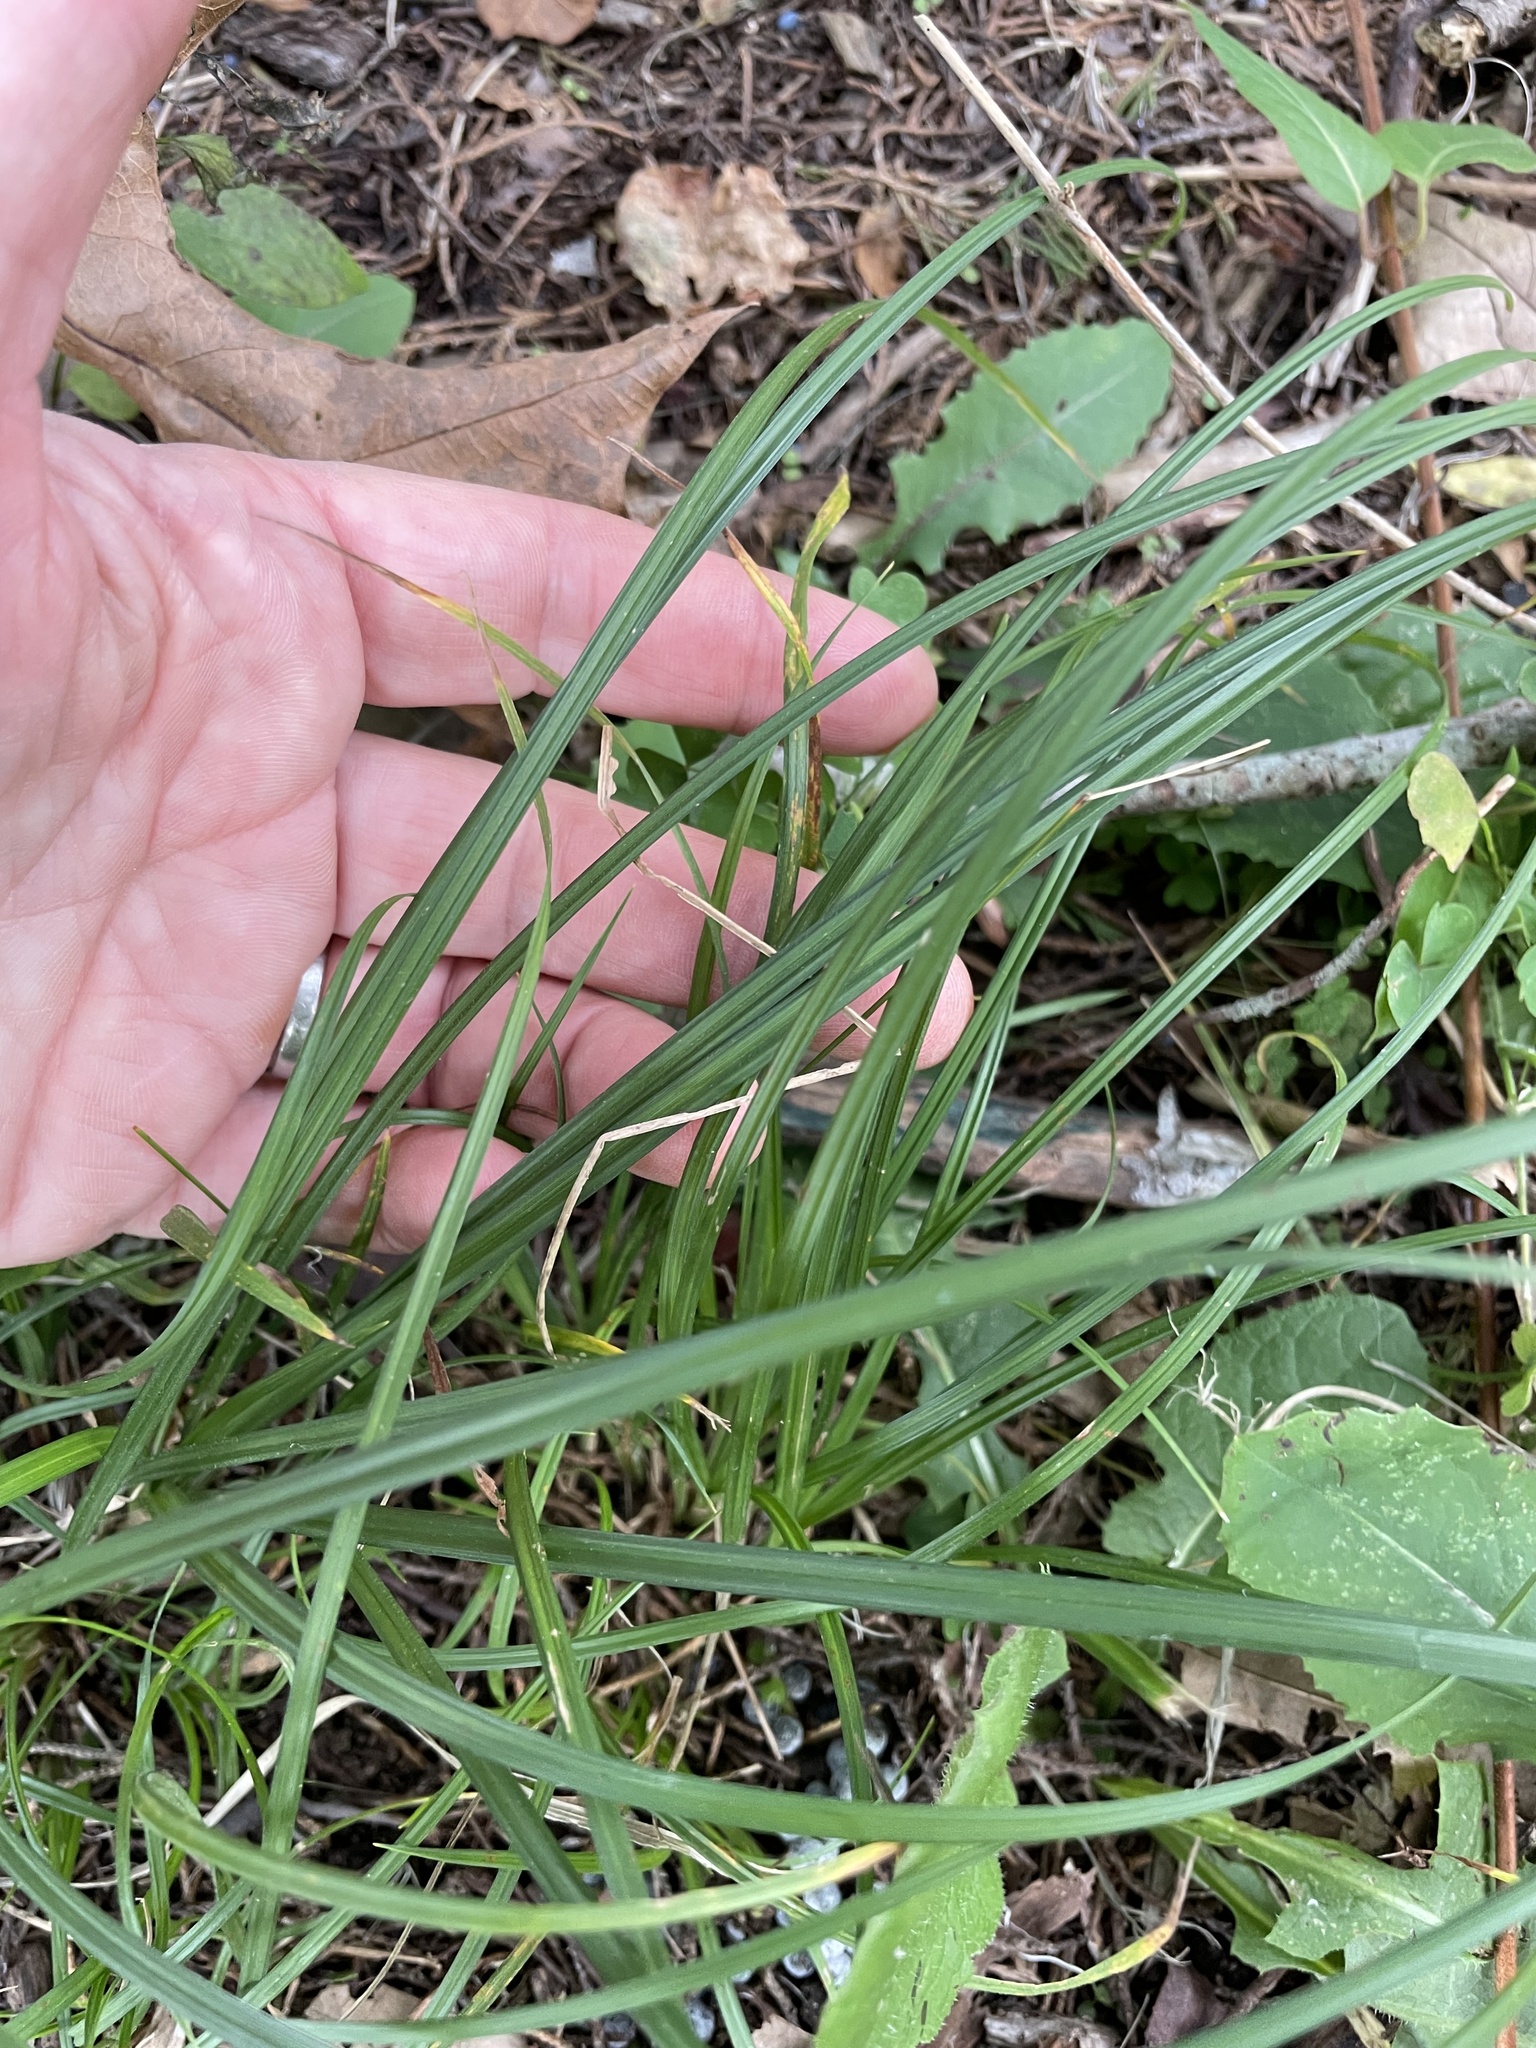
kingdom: Plantae
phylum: Tracheophyta
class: Liliopsida
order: Poales
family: Cyperaceae
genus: Carex
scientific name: Carex
